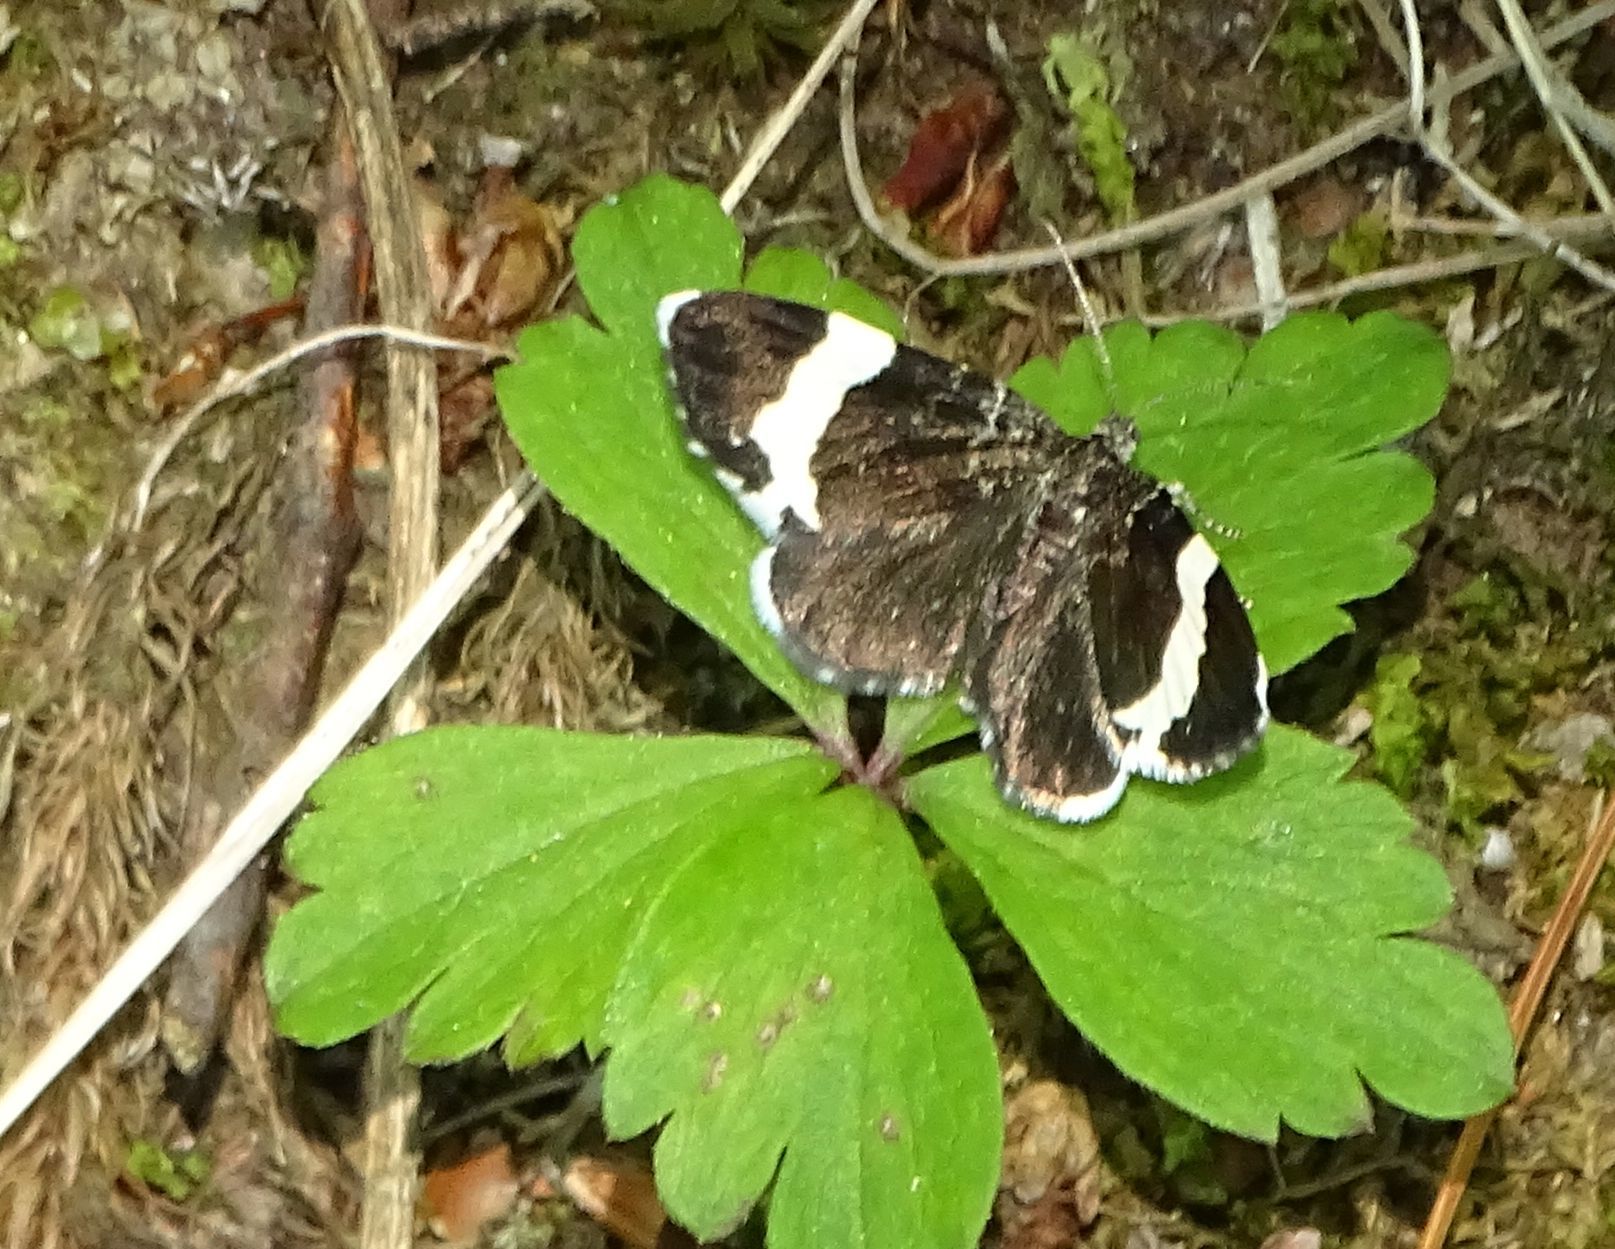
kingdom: Animalia
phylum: Arthropoda
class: Insecta
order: Lepidoptera
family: Geometridae
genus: Trichodezia
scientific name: Trichodezia albovittata
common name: White striped black
